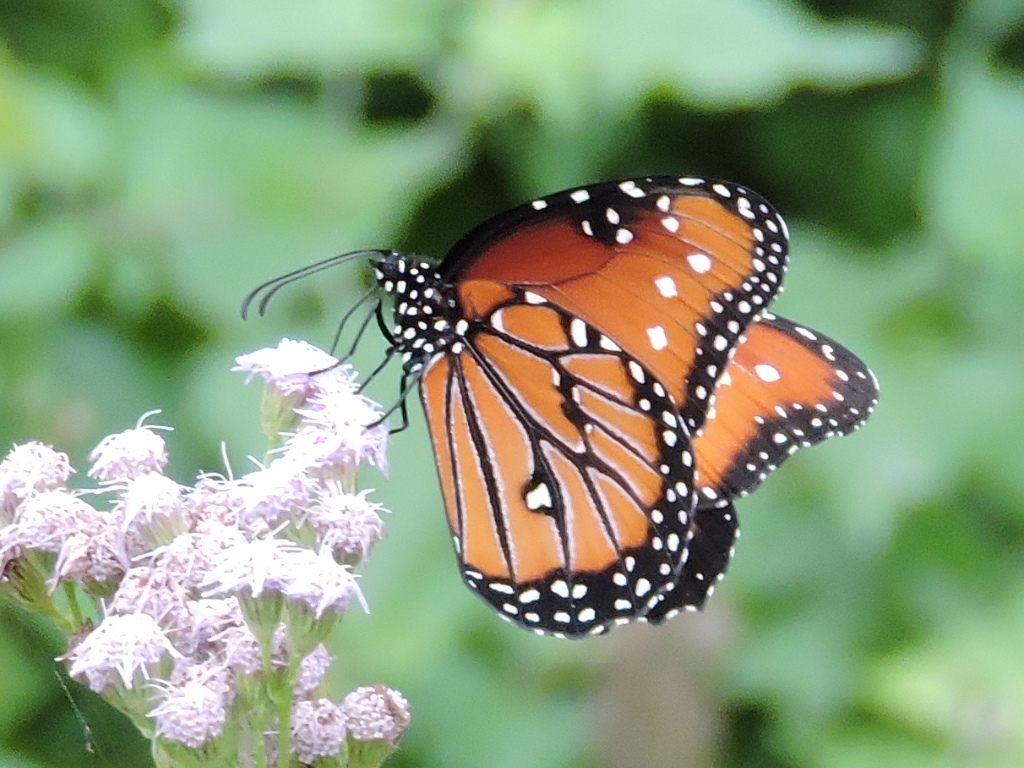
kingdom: Animalia
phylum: Arthropoda
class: Insecta
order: Lepidoptera
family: Nymphalidae
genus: Danaus
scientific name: Danaus gilippus
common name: Queen
